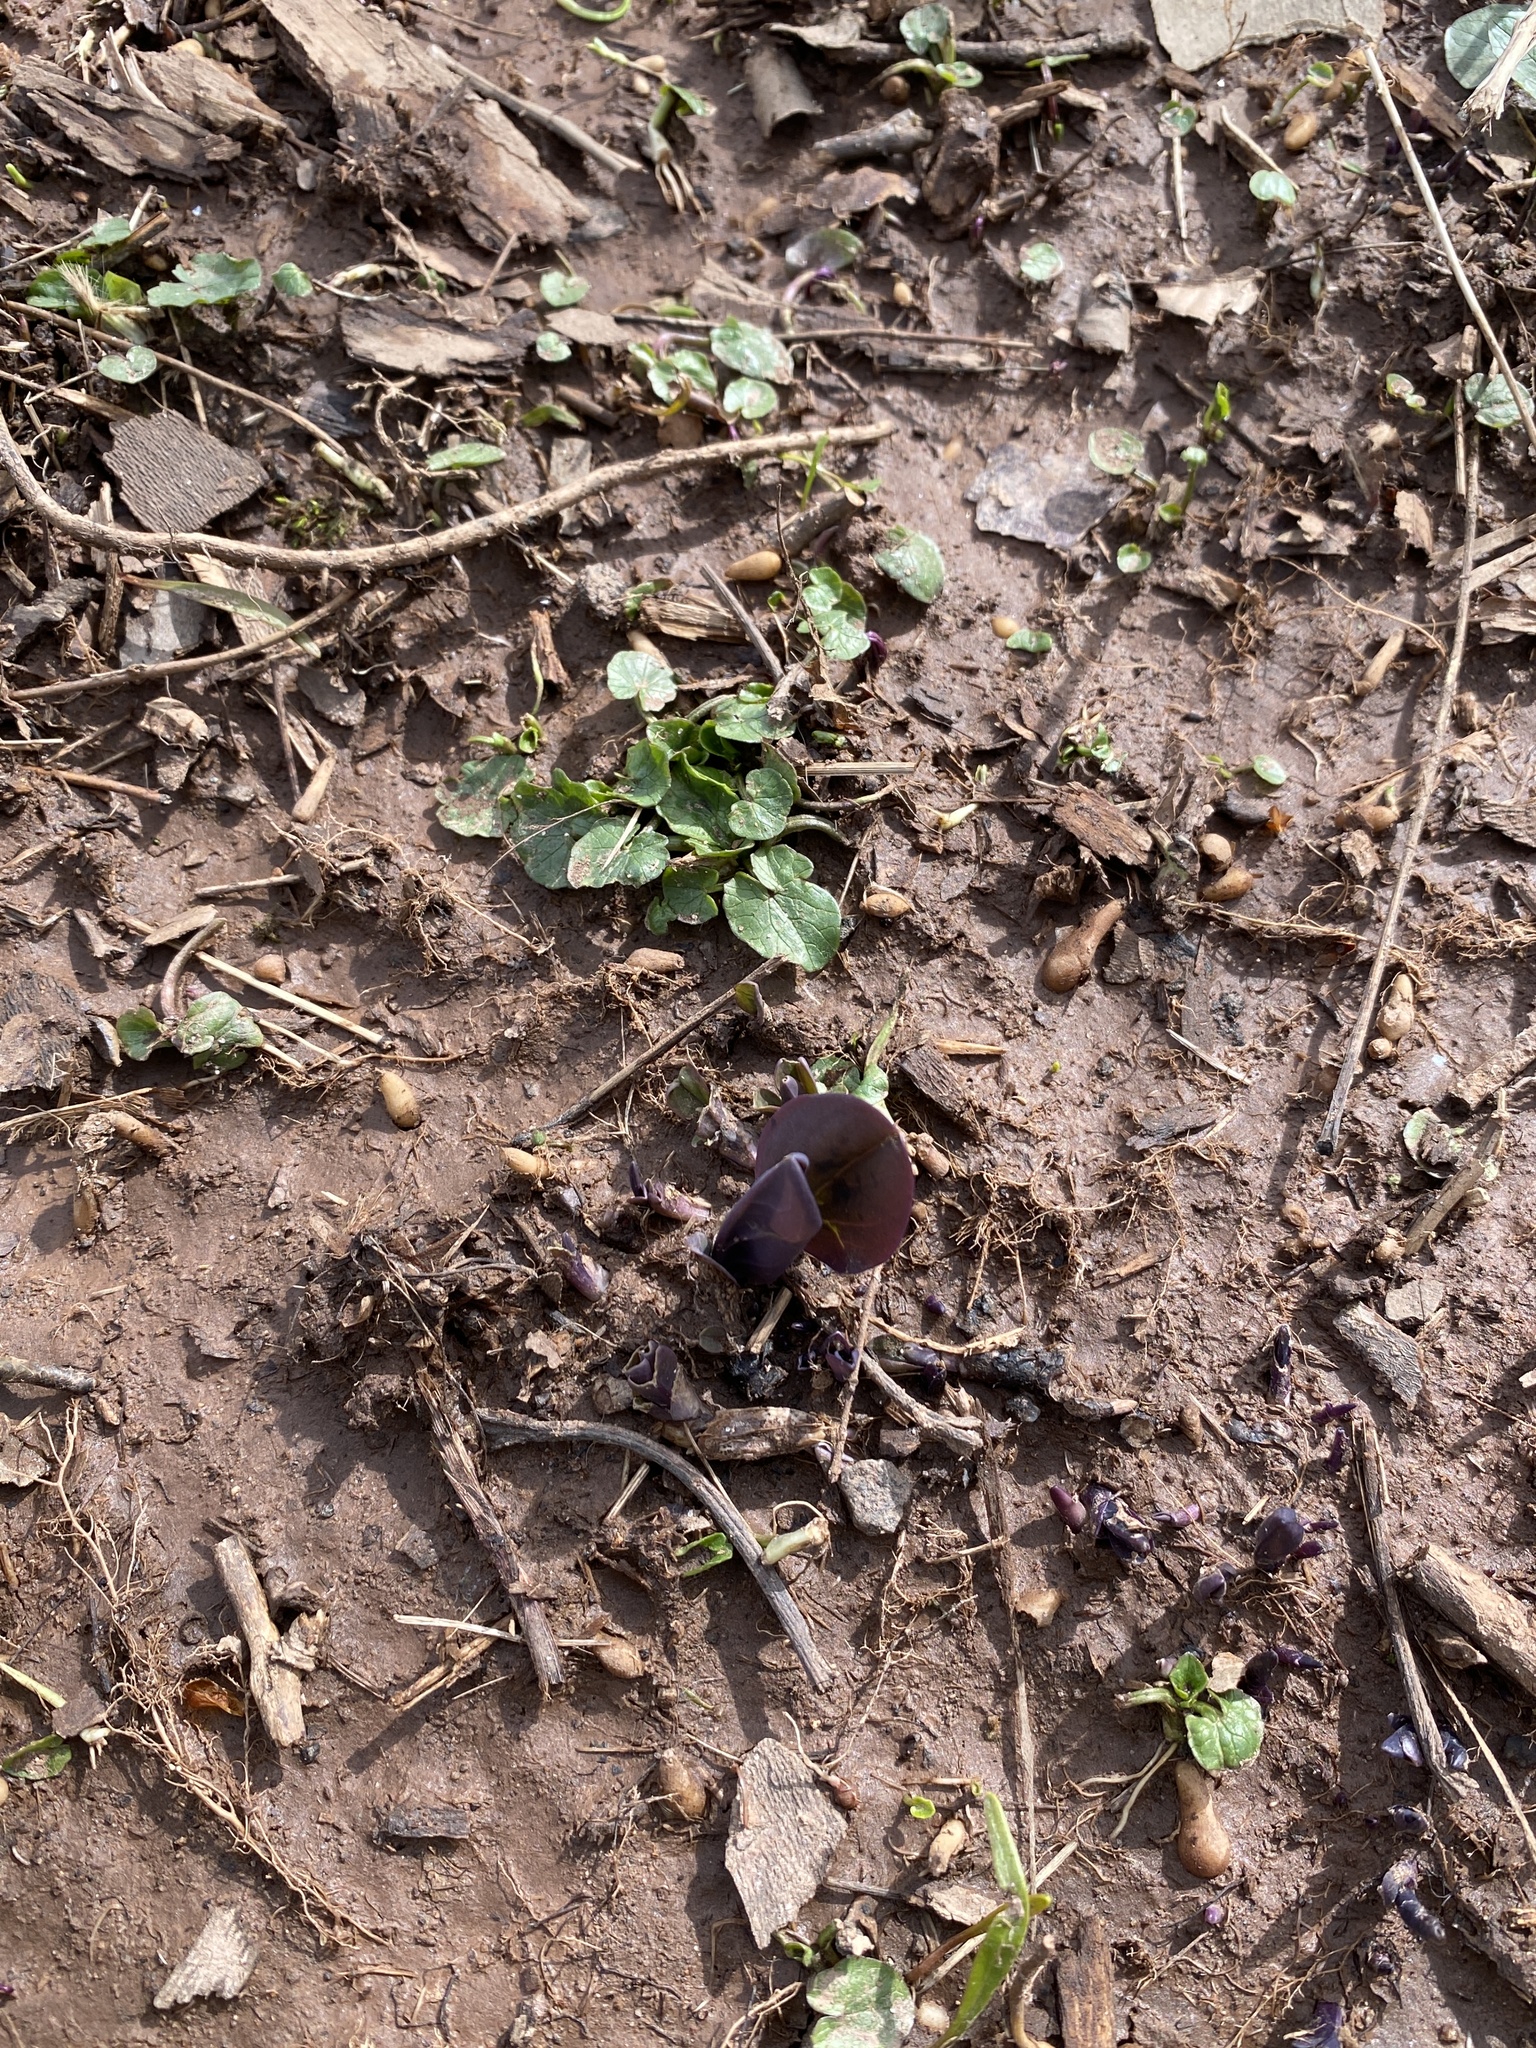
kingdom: Plantae
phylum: Tracheophyta
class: Magnoliopsida
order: Boraginales
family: Boraginaceae
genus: Mertensia
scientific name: Mertensia virginica
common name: Virginia bluebells
